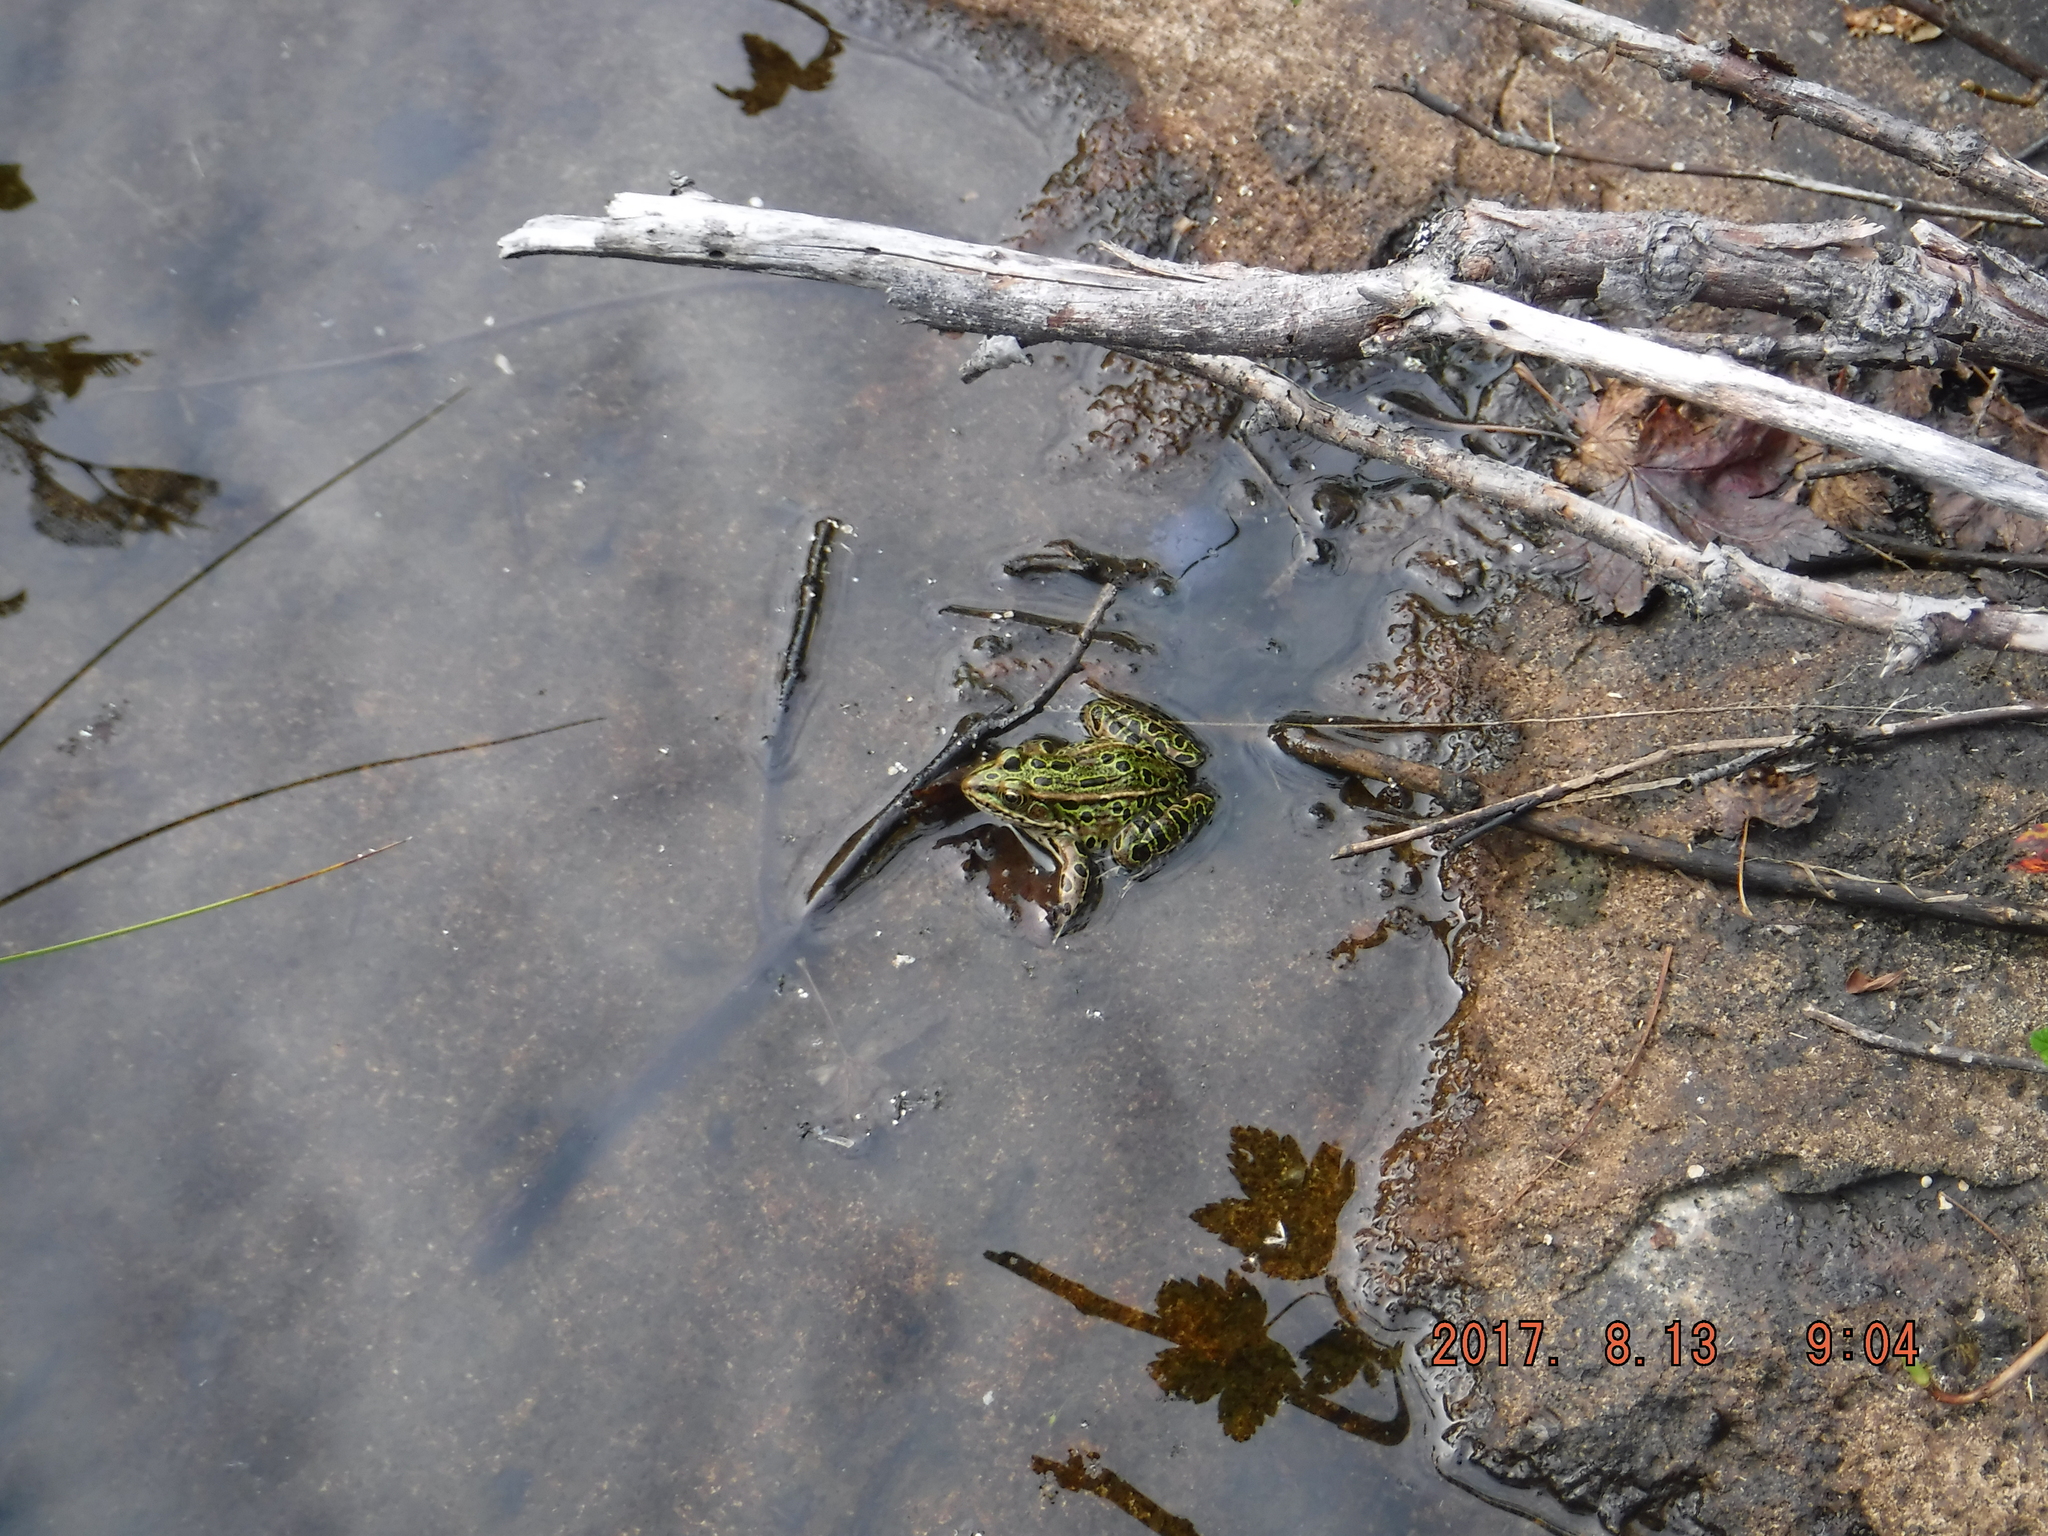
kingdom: Animalia
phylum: Chordata
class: Amphibia
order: Anura
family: Ranidae
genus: Lithobates
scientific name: Lithobates pipiens
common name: Northern leopard frog
